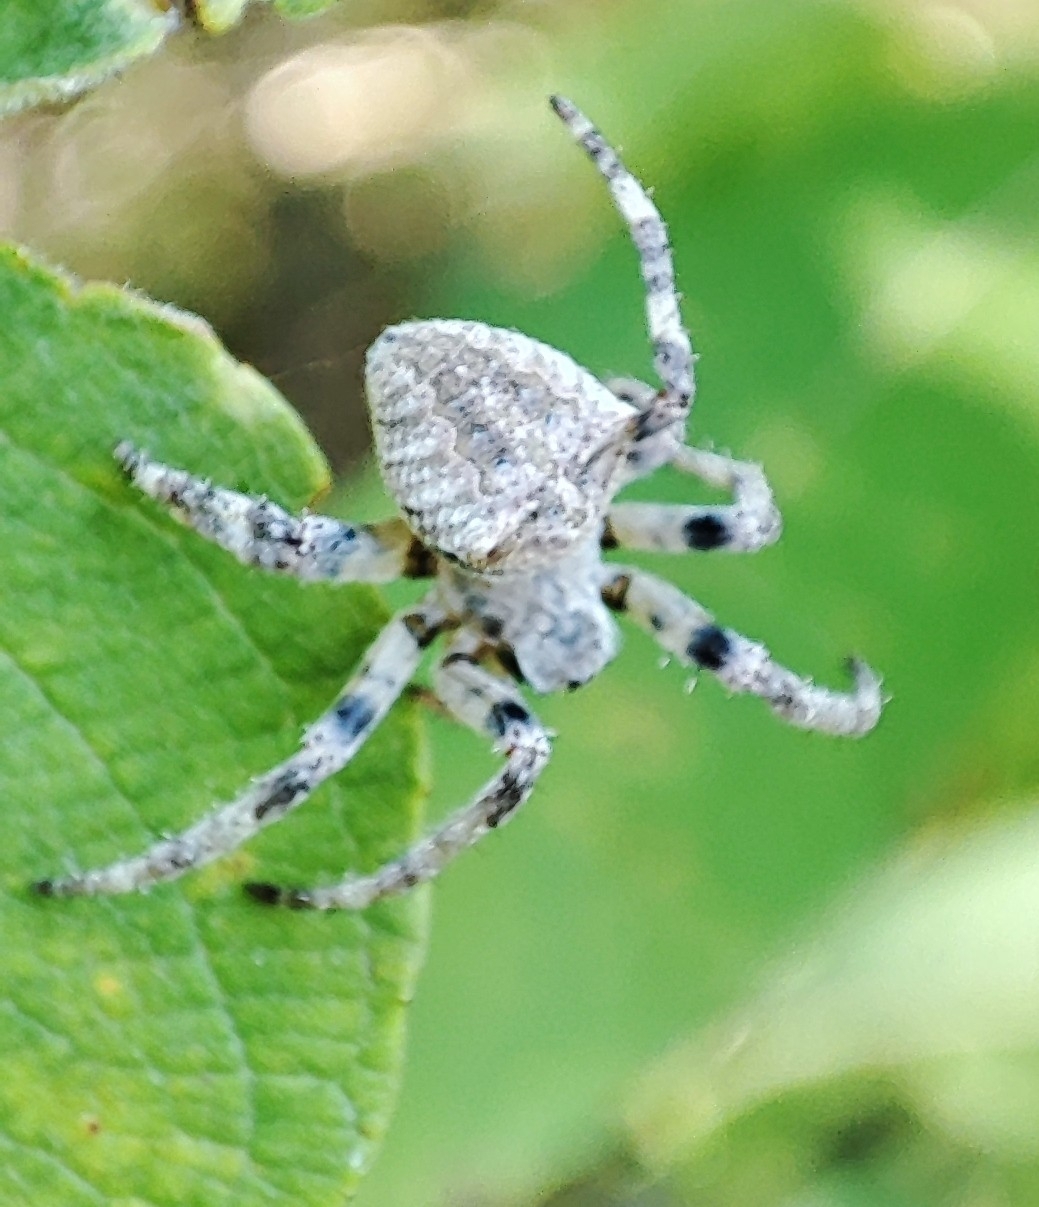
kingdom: Animalia
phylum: Arthropoda
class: Arachnida
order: Araneae
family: Araneidae
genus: Araneus
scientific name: Araneus angulatus
